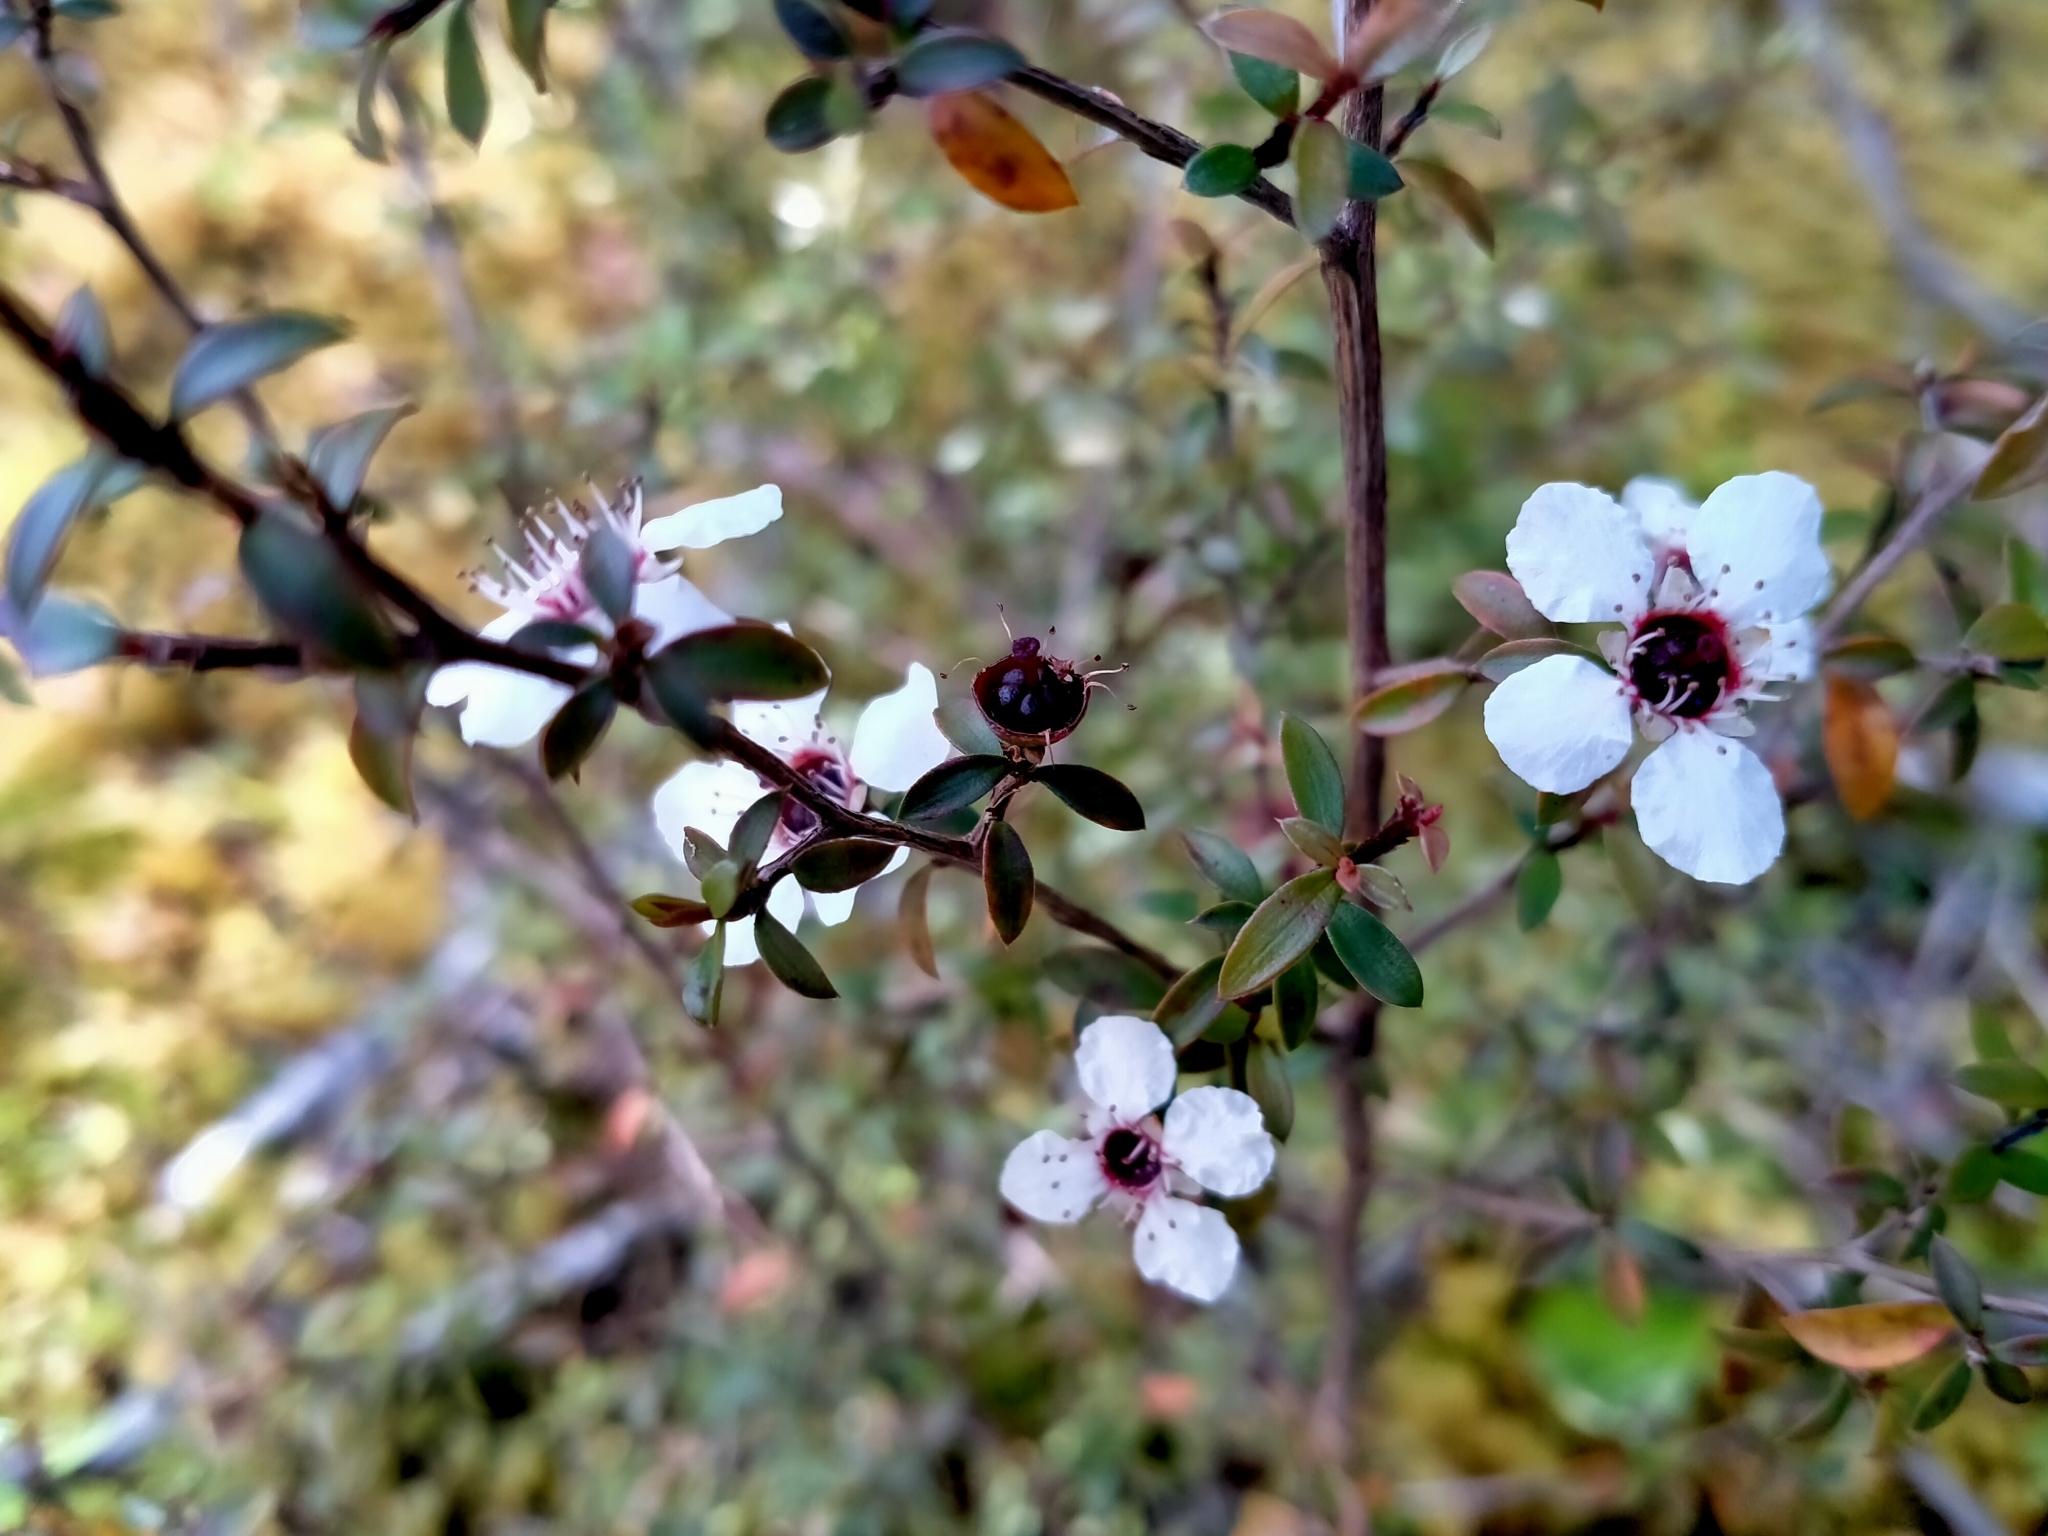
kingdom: Plantae
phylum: Tracheophyta
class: Magnoliopsida
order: Myrtales
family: Myrtaceae
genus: Leptospermum
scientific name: Leptospermum scoparium
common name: Broom tea-tree
